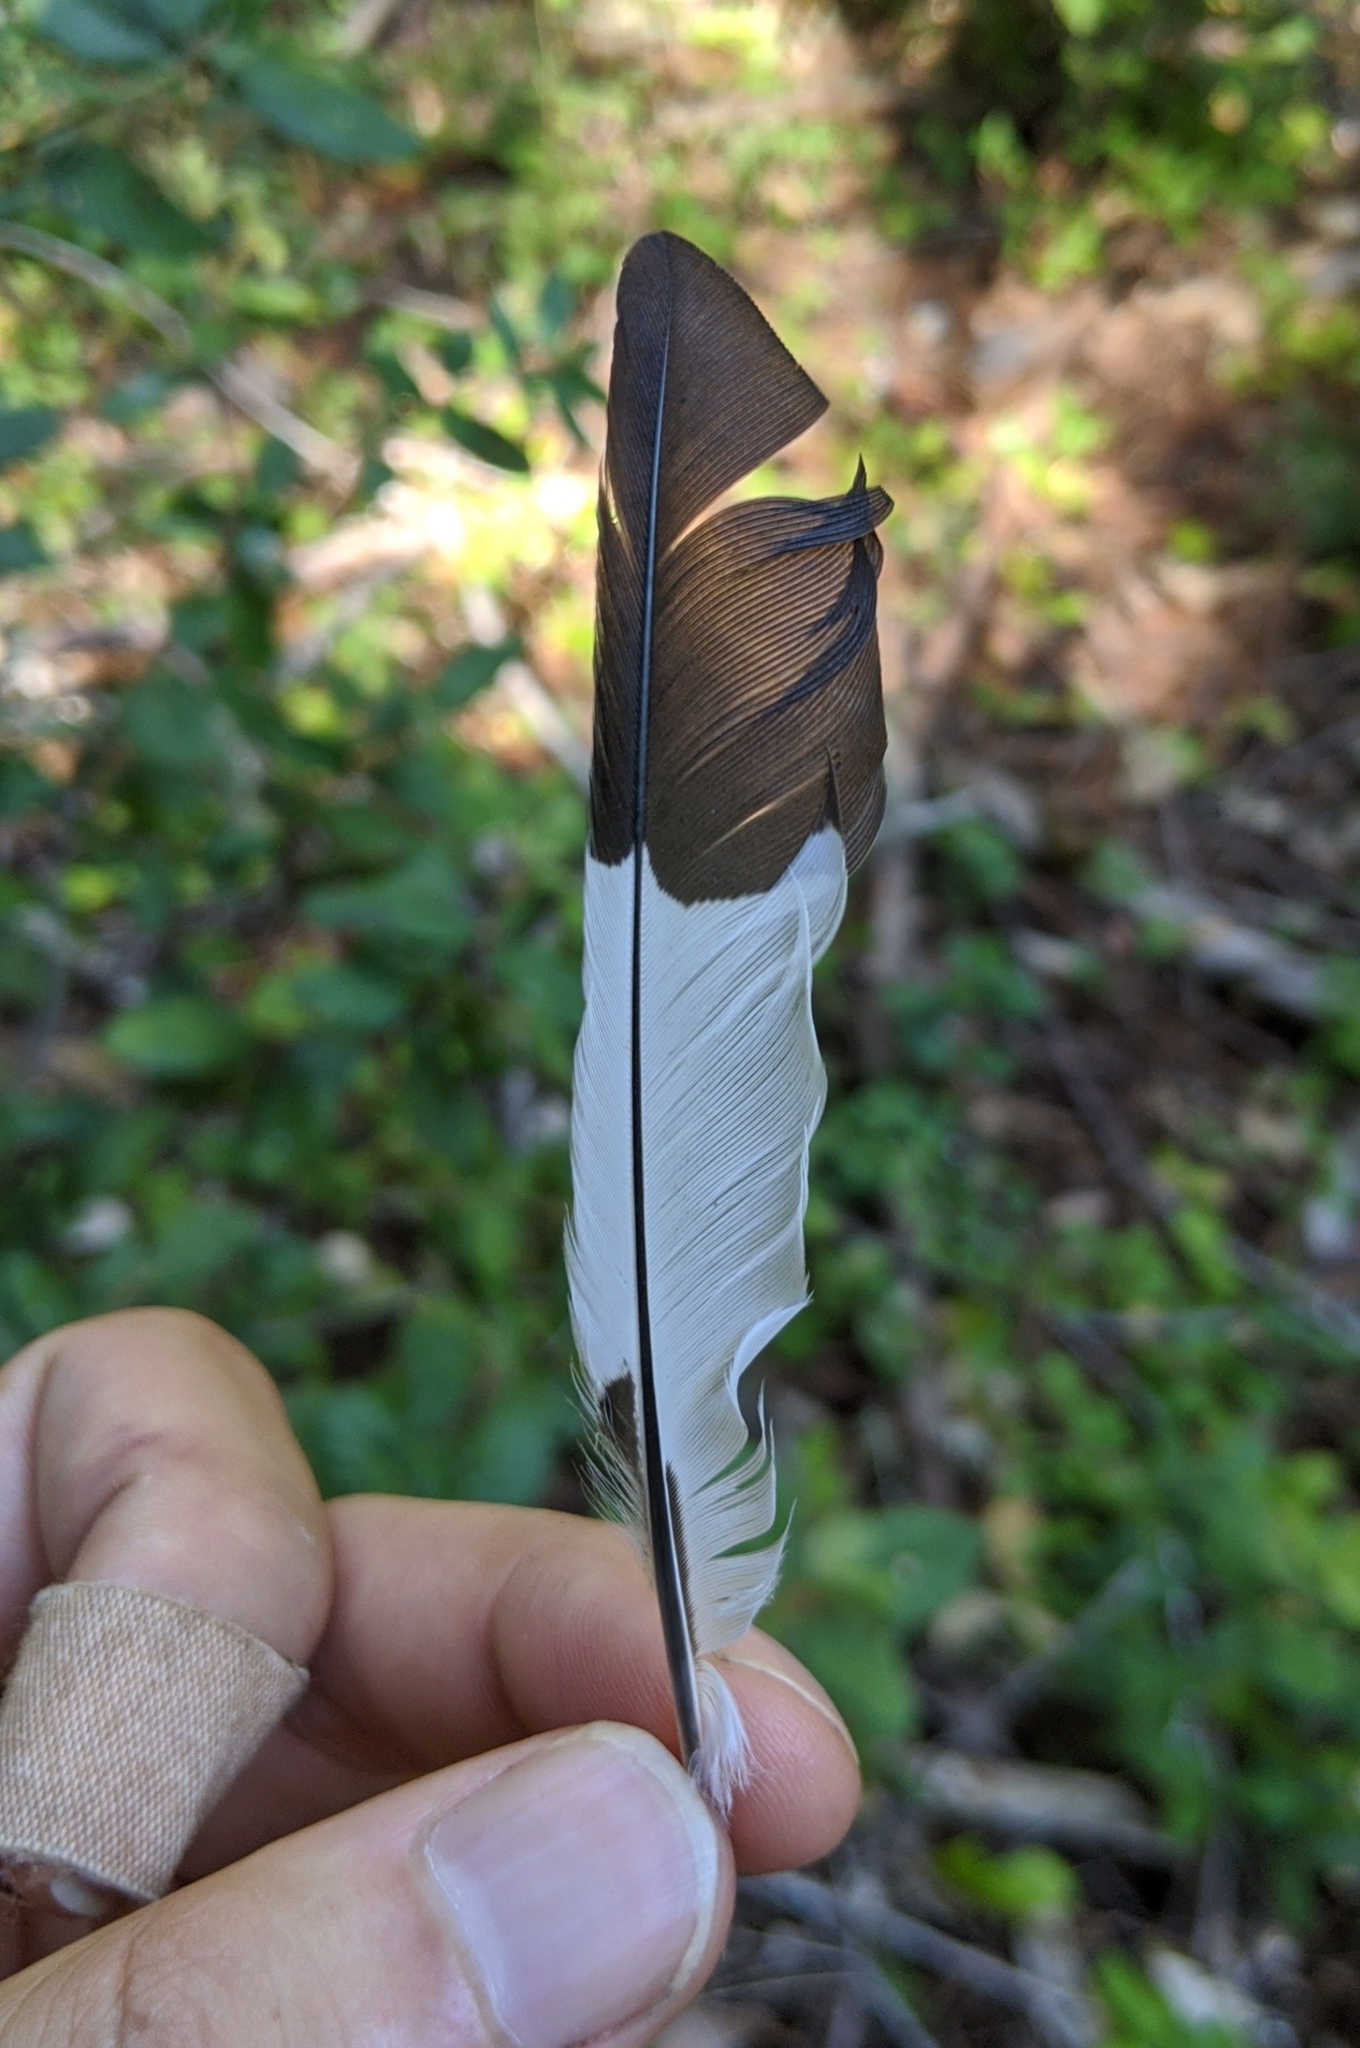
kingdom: Animalia
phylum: Chordata
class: Aves
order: Piciformes
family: Picidae
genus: Melanerpes
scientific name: Melanerpes formicivorus
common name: Acorn woodpecker
